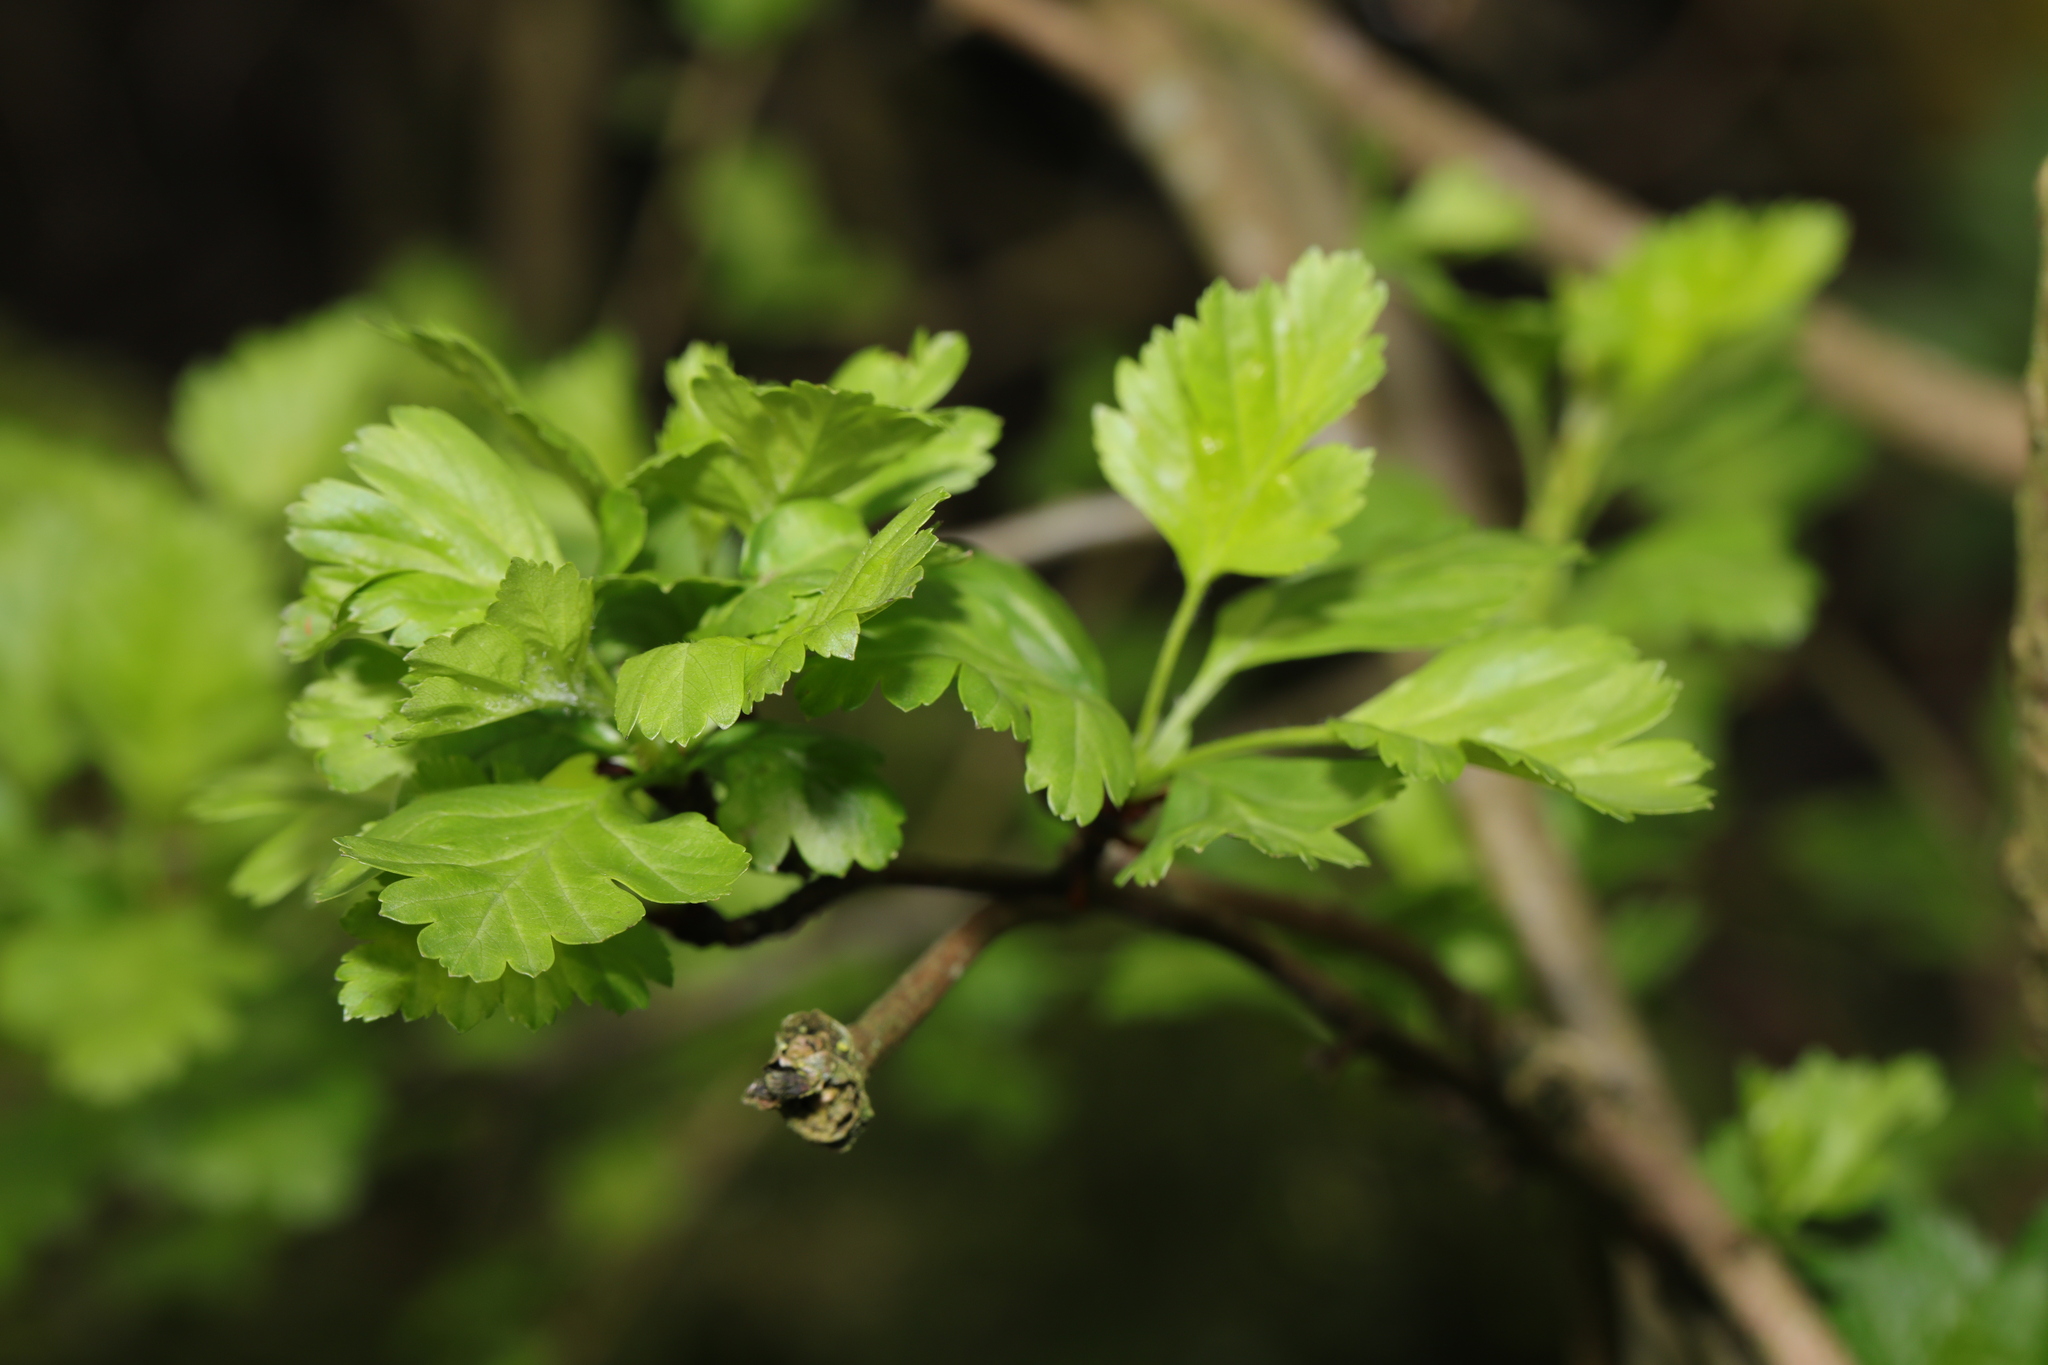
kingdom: Plantae
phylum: Tracheophyta
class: Magnoliopsida
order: Rosales
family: Rosaceae
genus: Crataegus
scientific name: Crataegus monogyna
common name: Hawthorn
